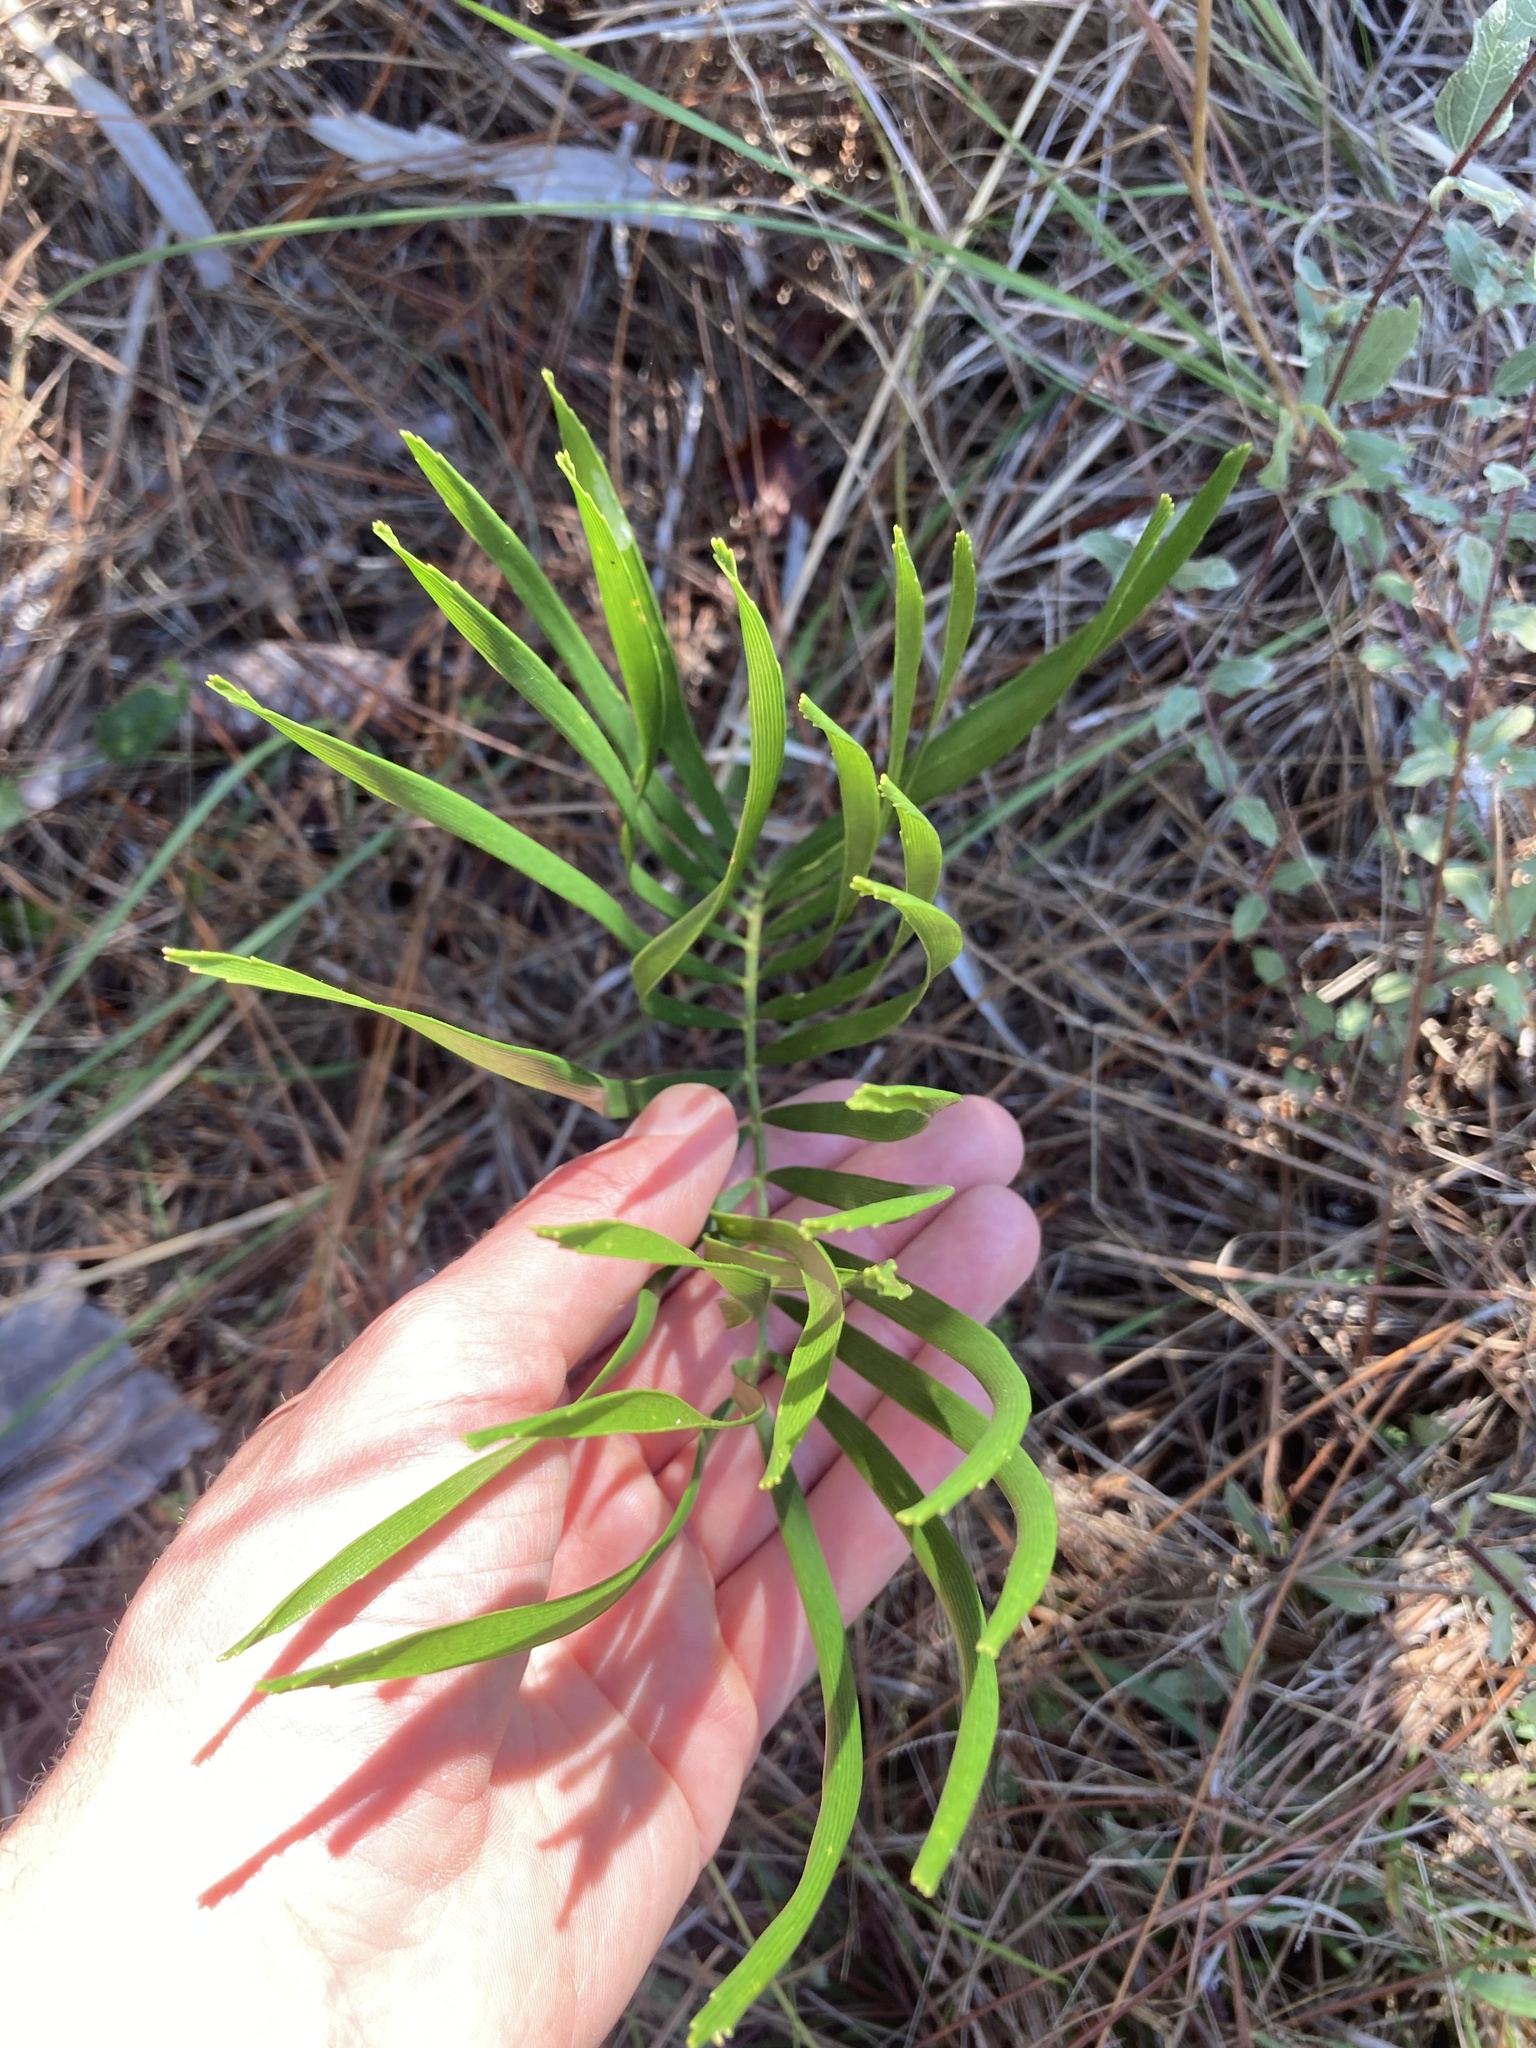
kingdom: Plantae
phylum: Tracheophyta
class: Cycadopsida
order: Cycadales
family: Zamiaceae
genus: Zamia
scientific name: Zamia integrifolia
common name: Florida arrowroot
